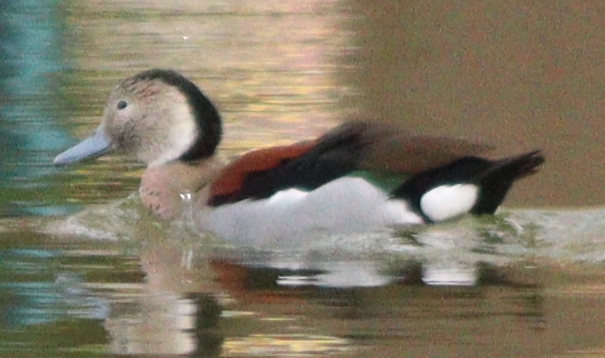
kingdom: Animalia
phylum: Chordata
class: Aves
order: Anseriformes
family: Anatidae
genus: Callonetta
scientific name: Callonetta leucophrys
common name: Ringed teal
